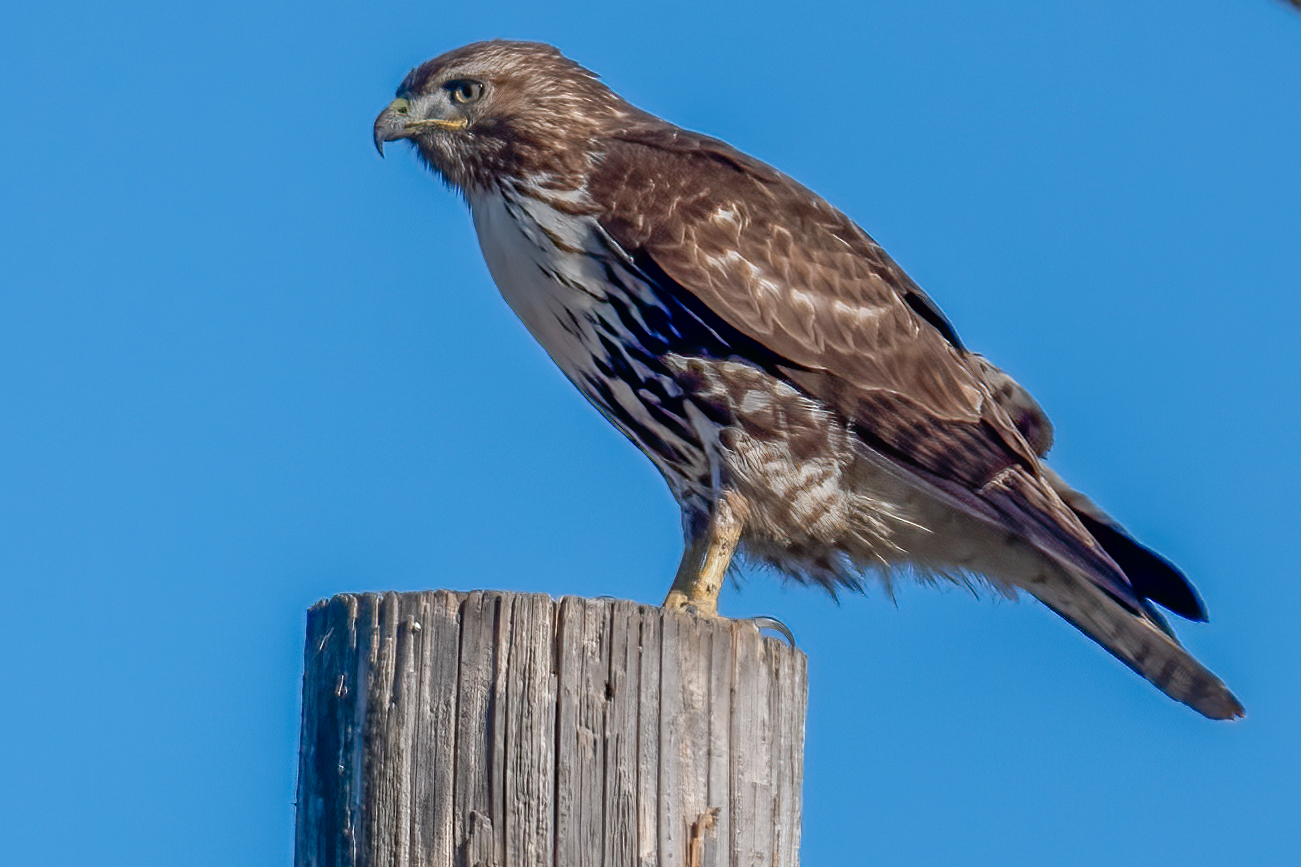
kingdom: Animalia
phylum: Chordata
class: Aves
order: Accipitriformes
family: Accipitridae
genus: Buteo
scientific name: Buteo jamaicensis
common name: Red-tailed hawk
